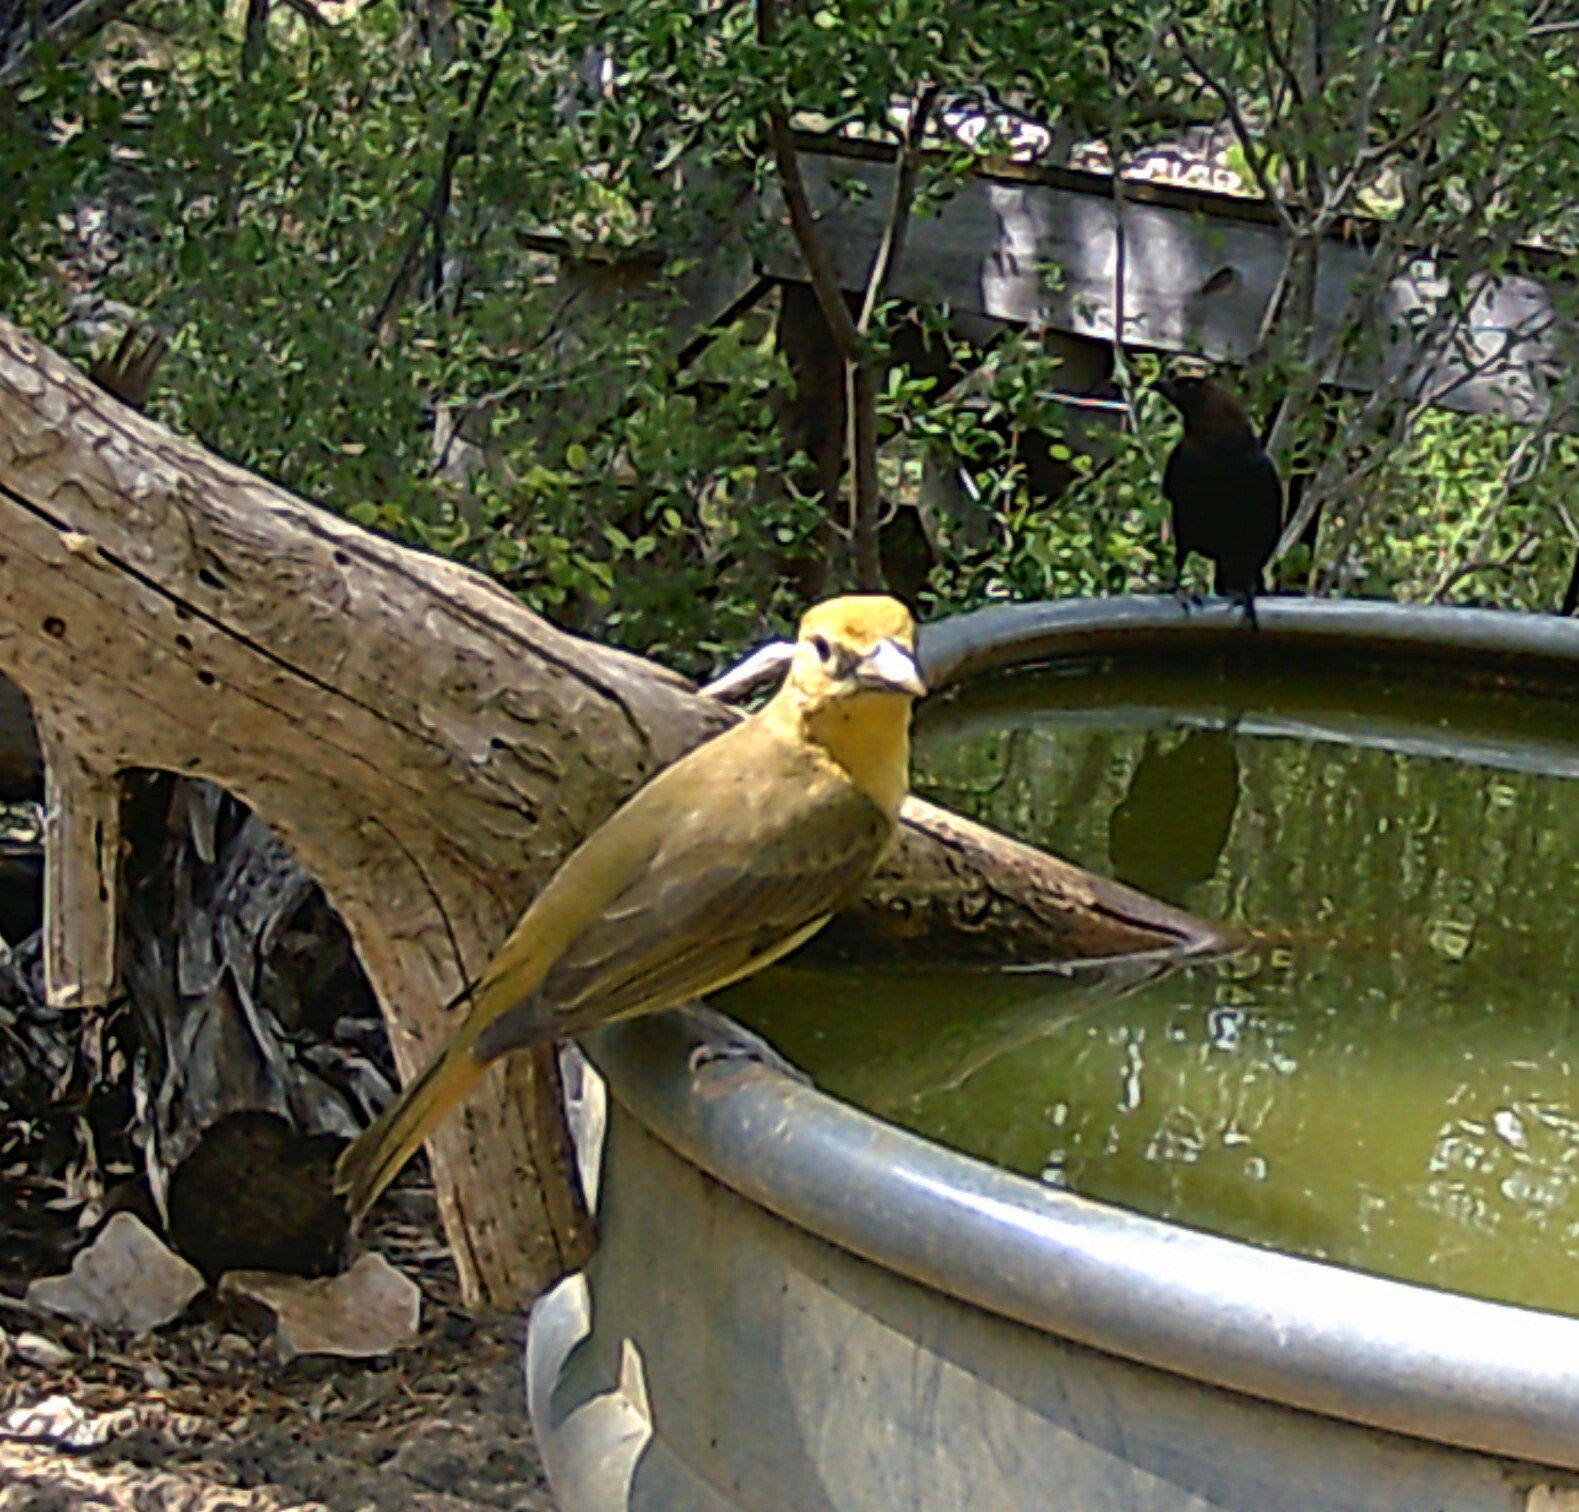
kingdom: Animalia
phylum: Chordata
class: Aves
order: Passeriformes
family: Cardinalidae
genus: Piranga
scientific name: Piranga rubra
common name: Summer tanager
